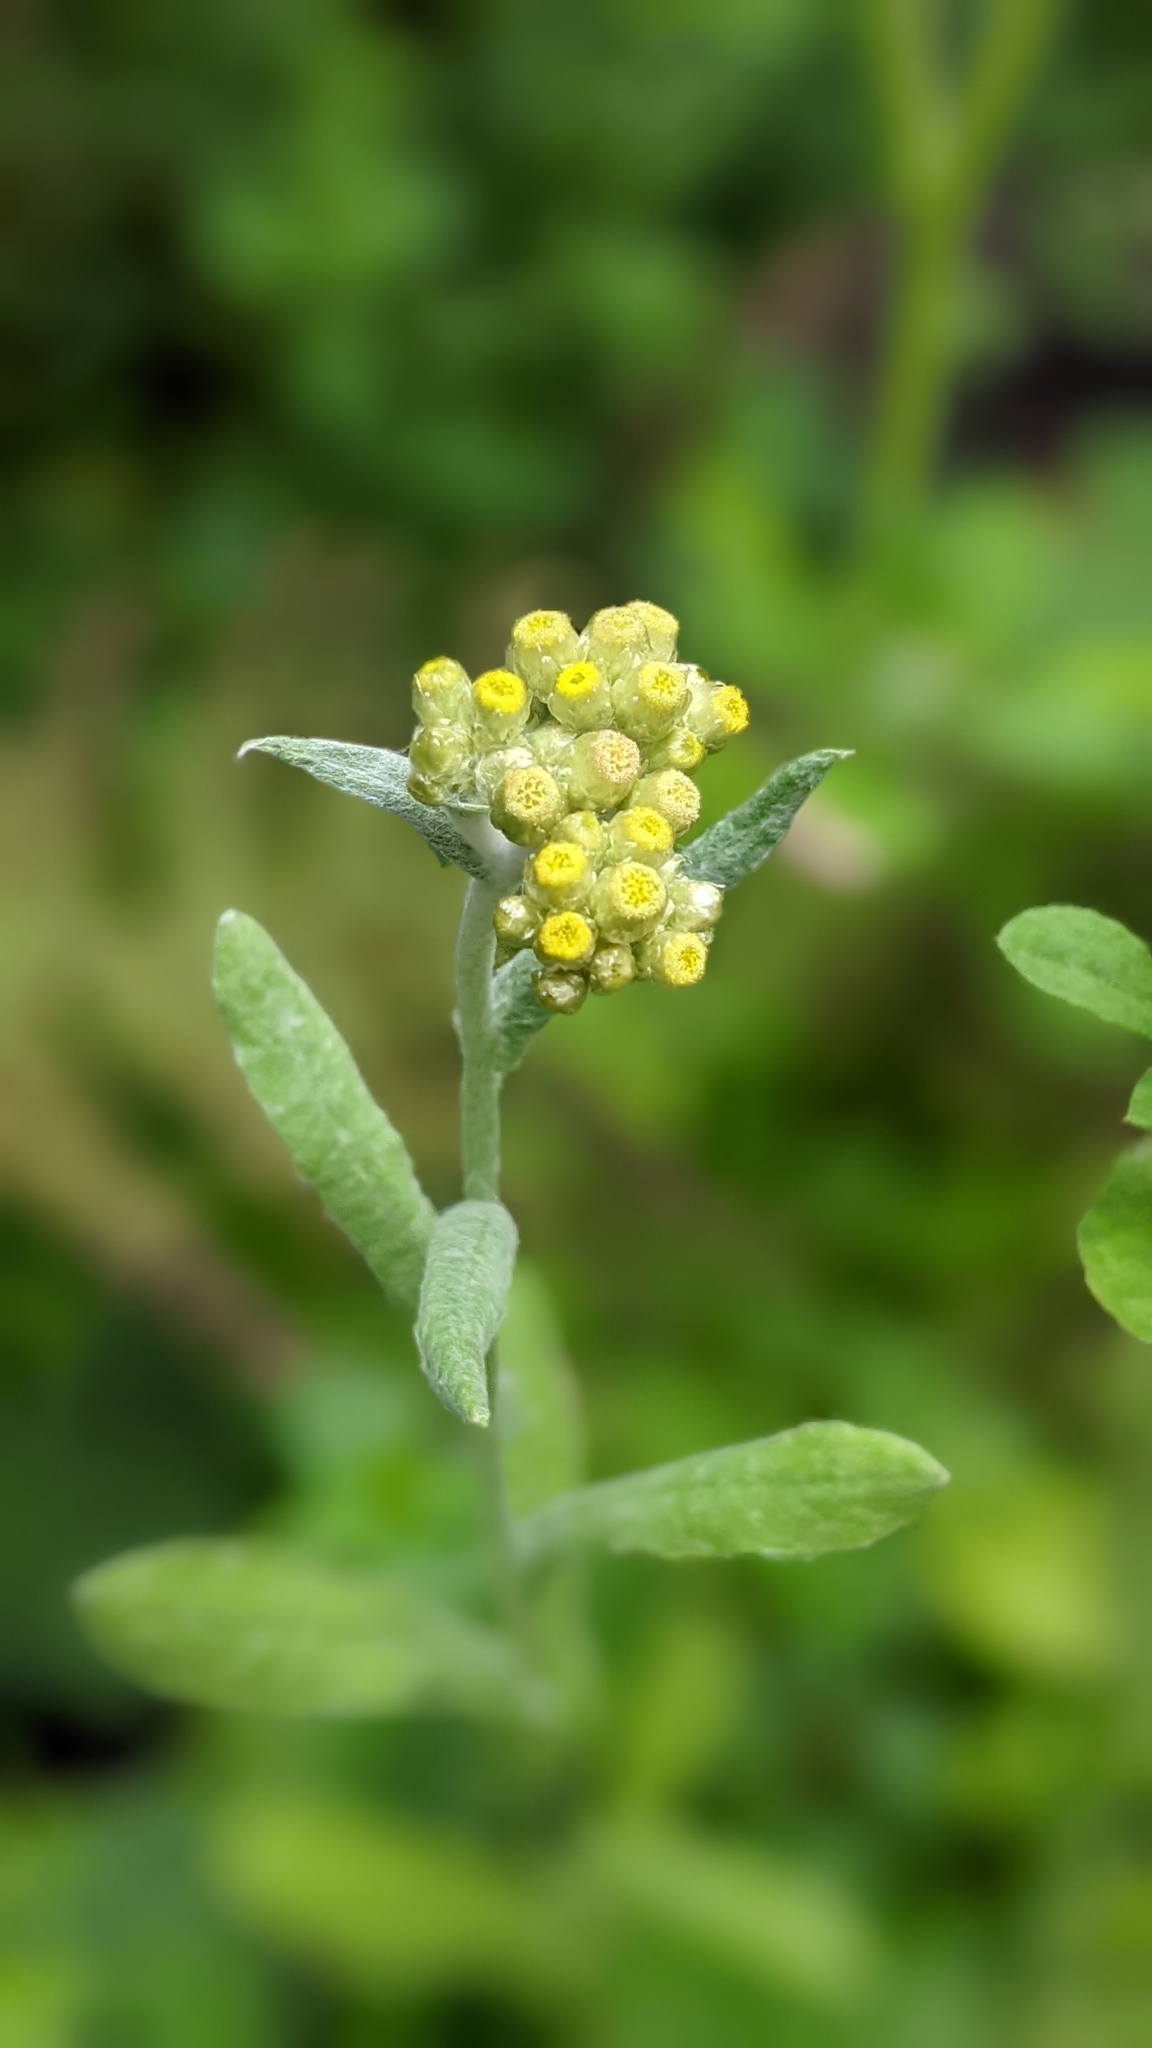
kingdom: Plantae
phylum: Tracheophyta
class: Magnoliopsida
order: Asterales
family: Asteraceae
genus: Pseudognaphalium
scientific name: Pseudognaphalium affine
